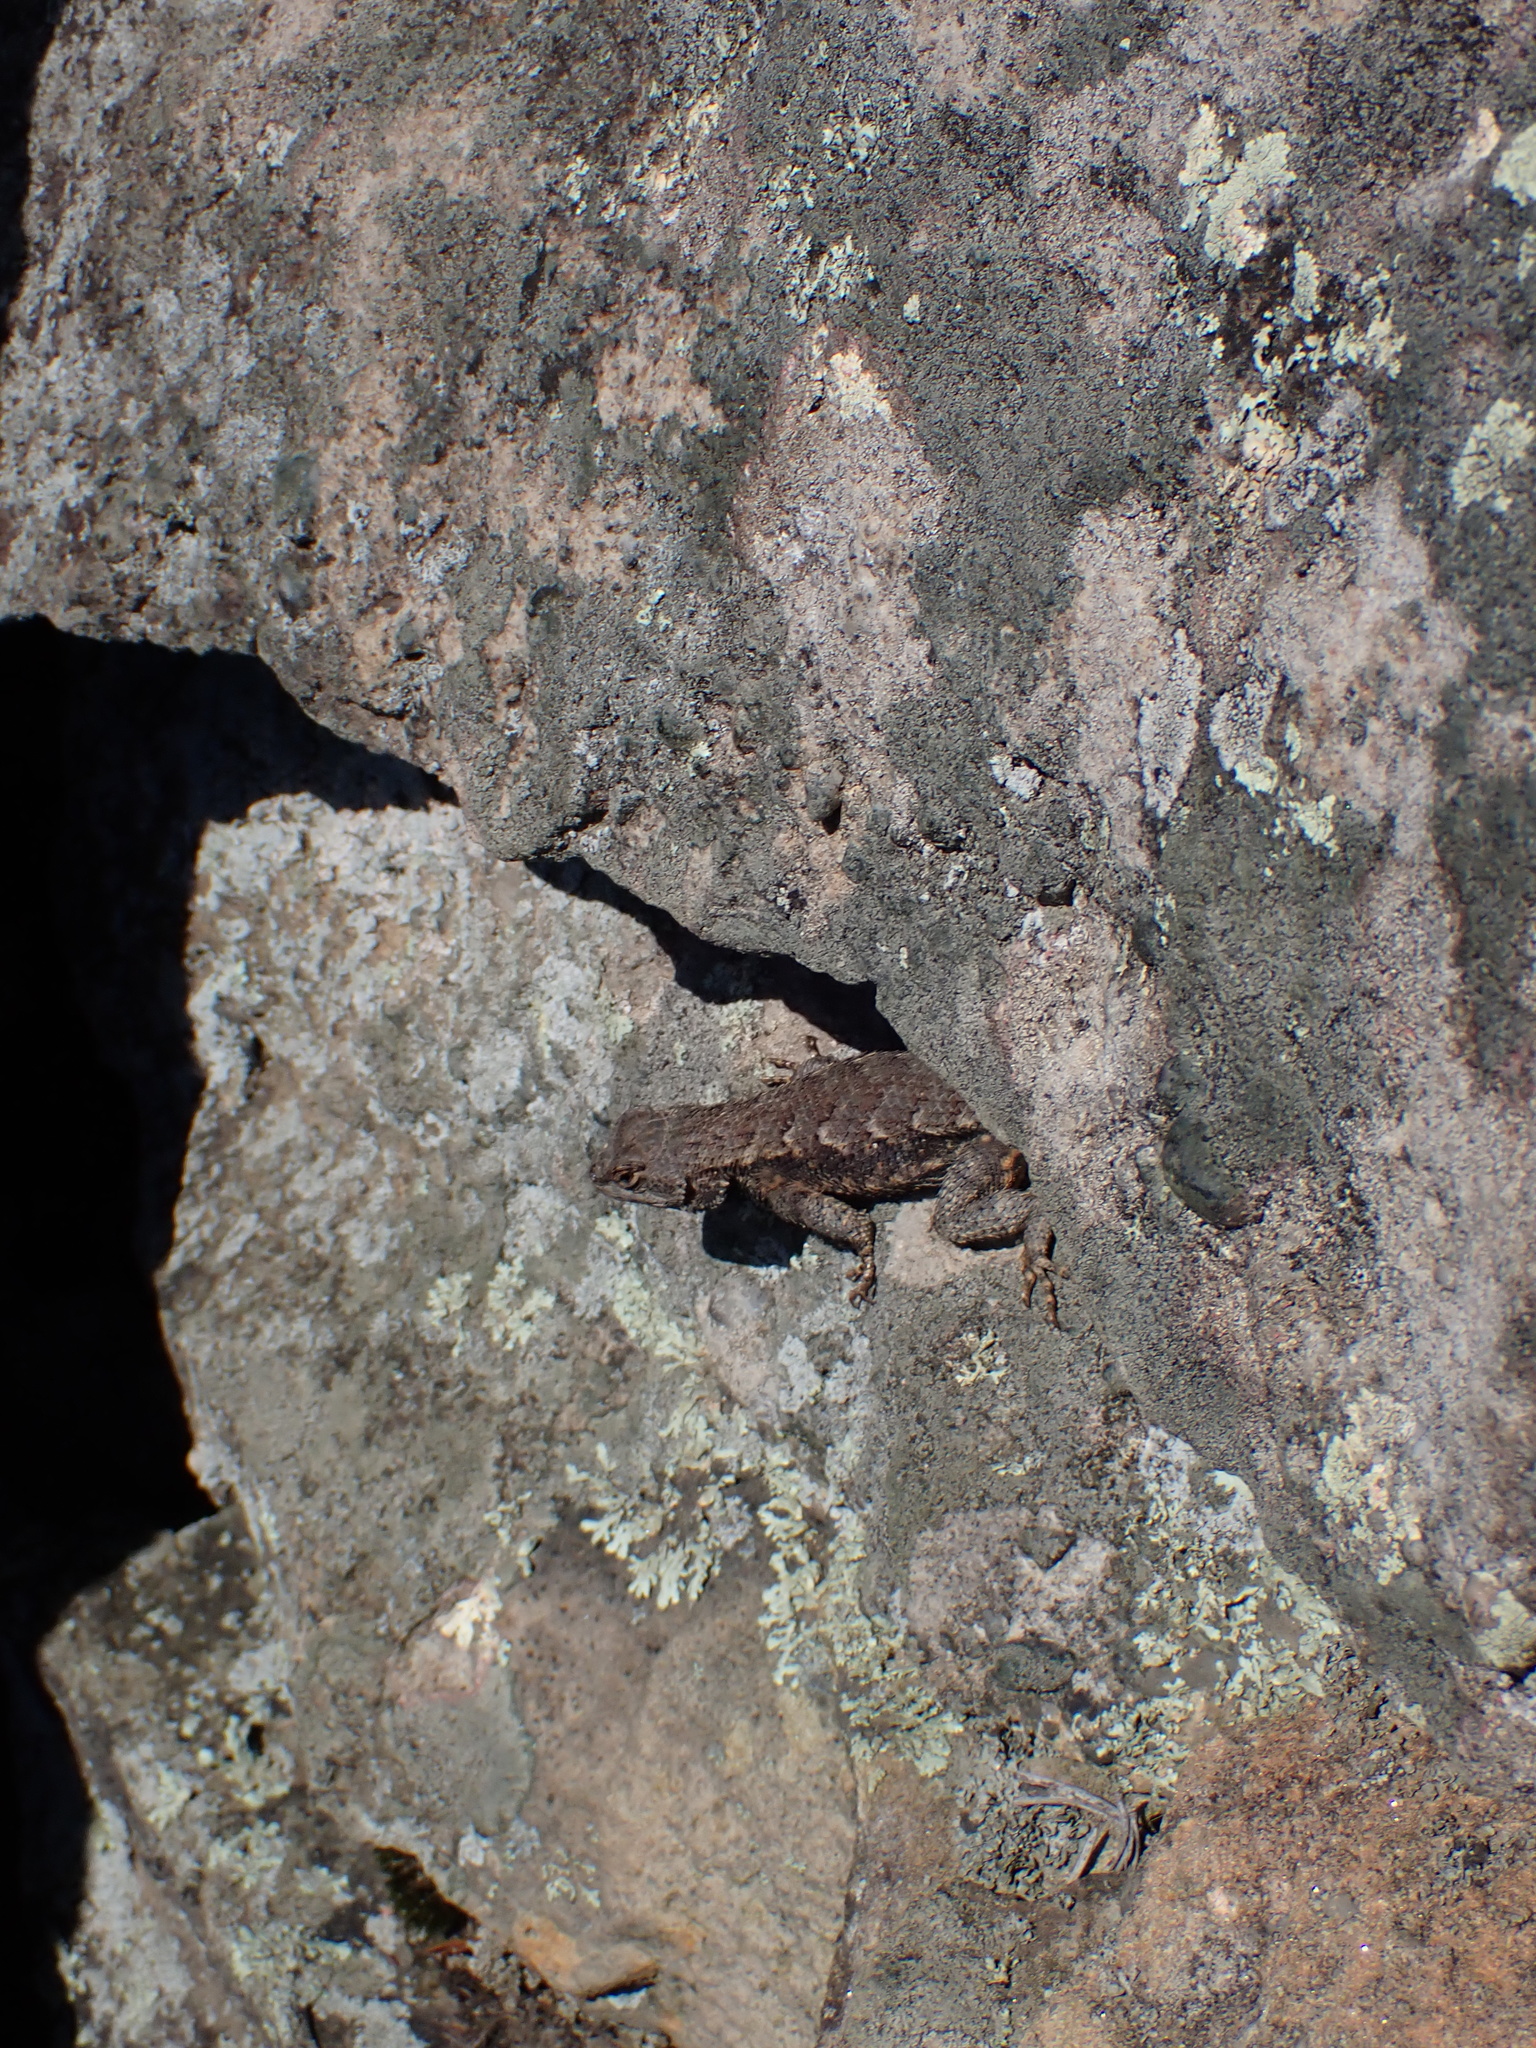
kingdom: Animalia
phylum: Chordata
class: Squamata
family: Phrynosomatidae
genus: Sceloporus
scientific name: Sceloporus undulatus
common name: Eastern fence lizard
